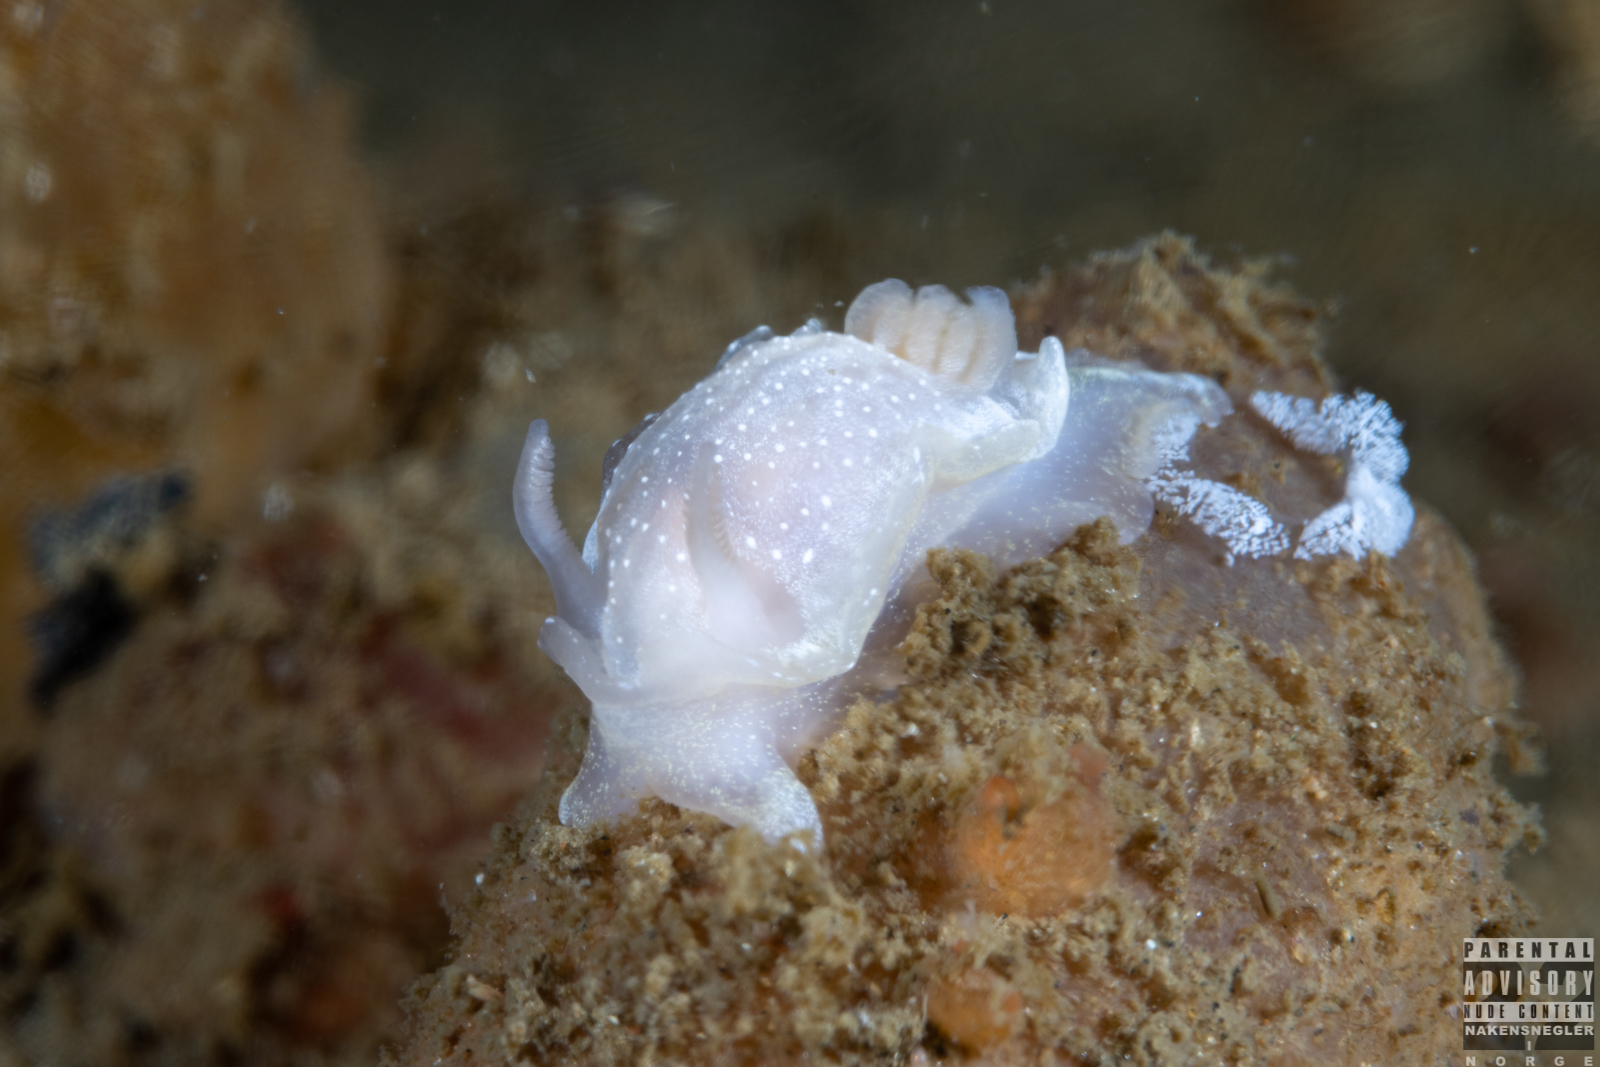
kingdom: Animalia
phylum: Mollusca
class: Gastropoda
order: Nudibranchia
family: Goniodorididae
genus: Okenia
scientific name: Okenia
